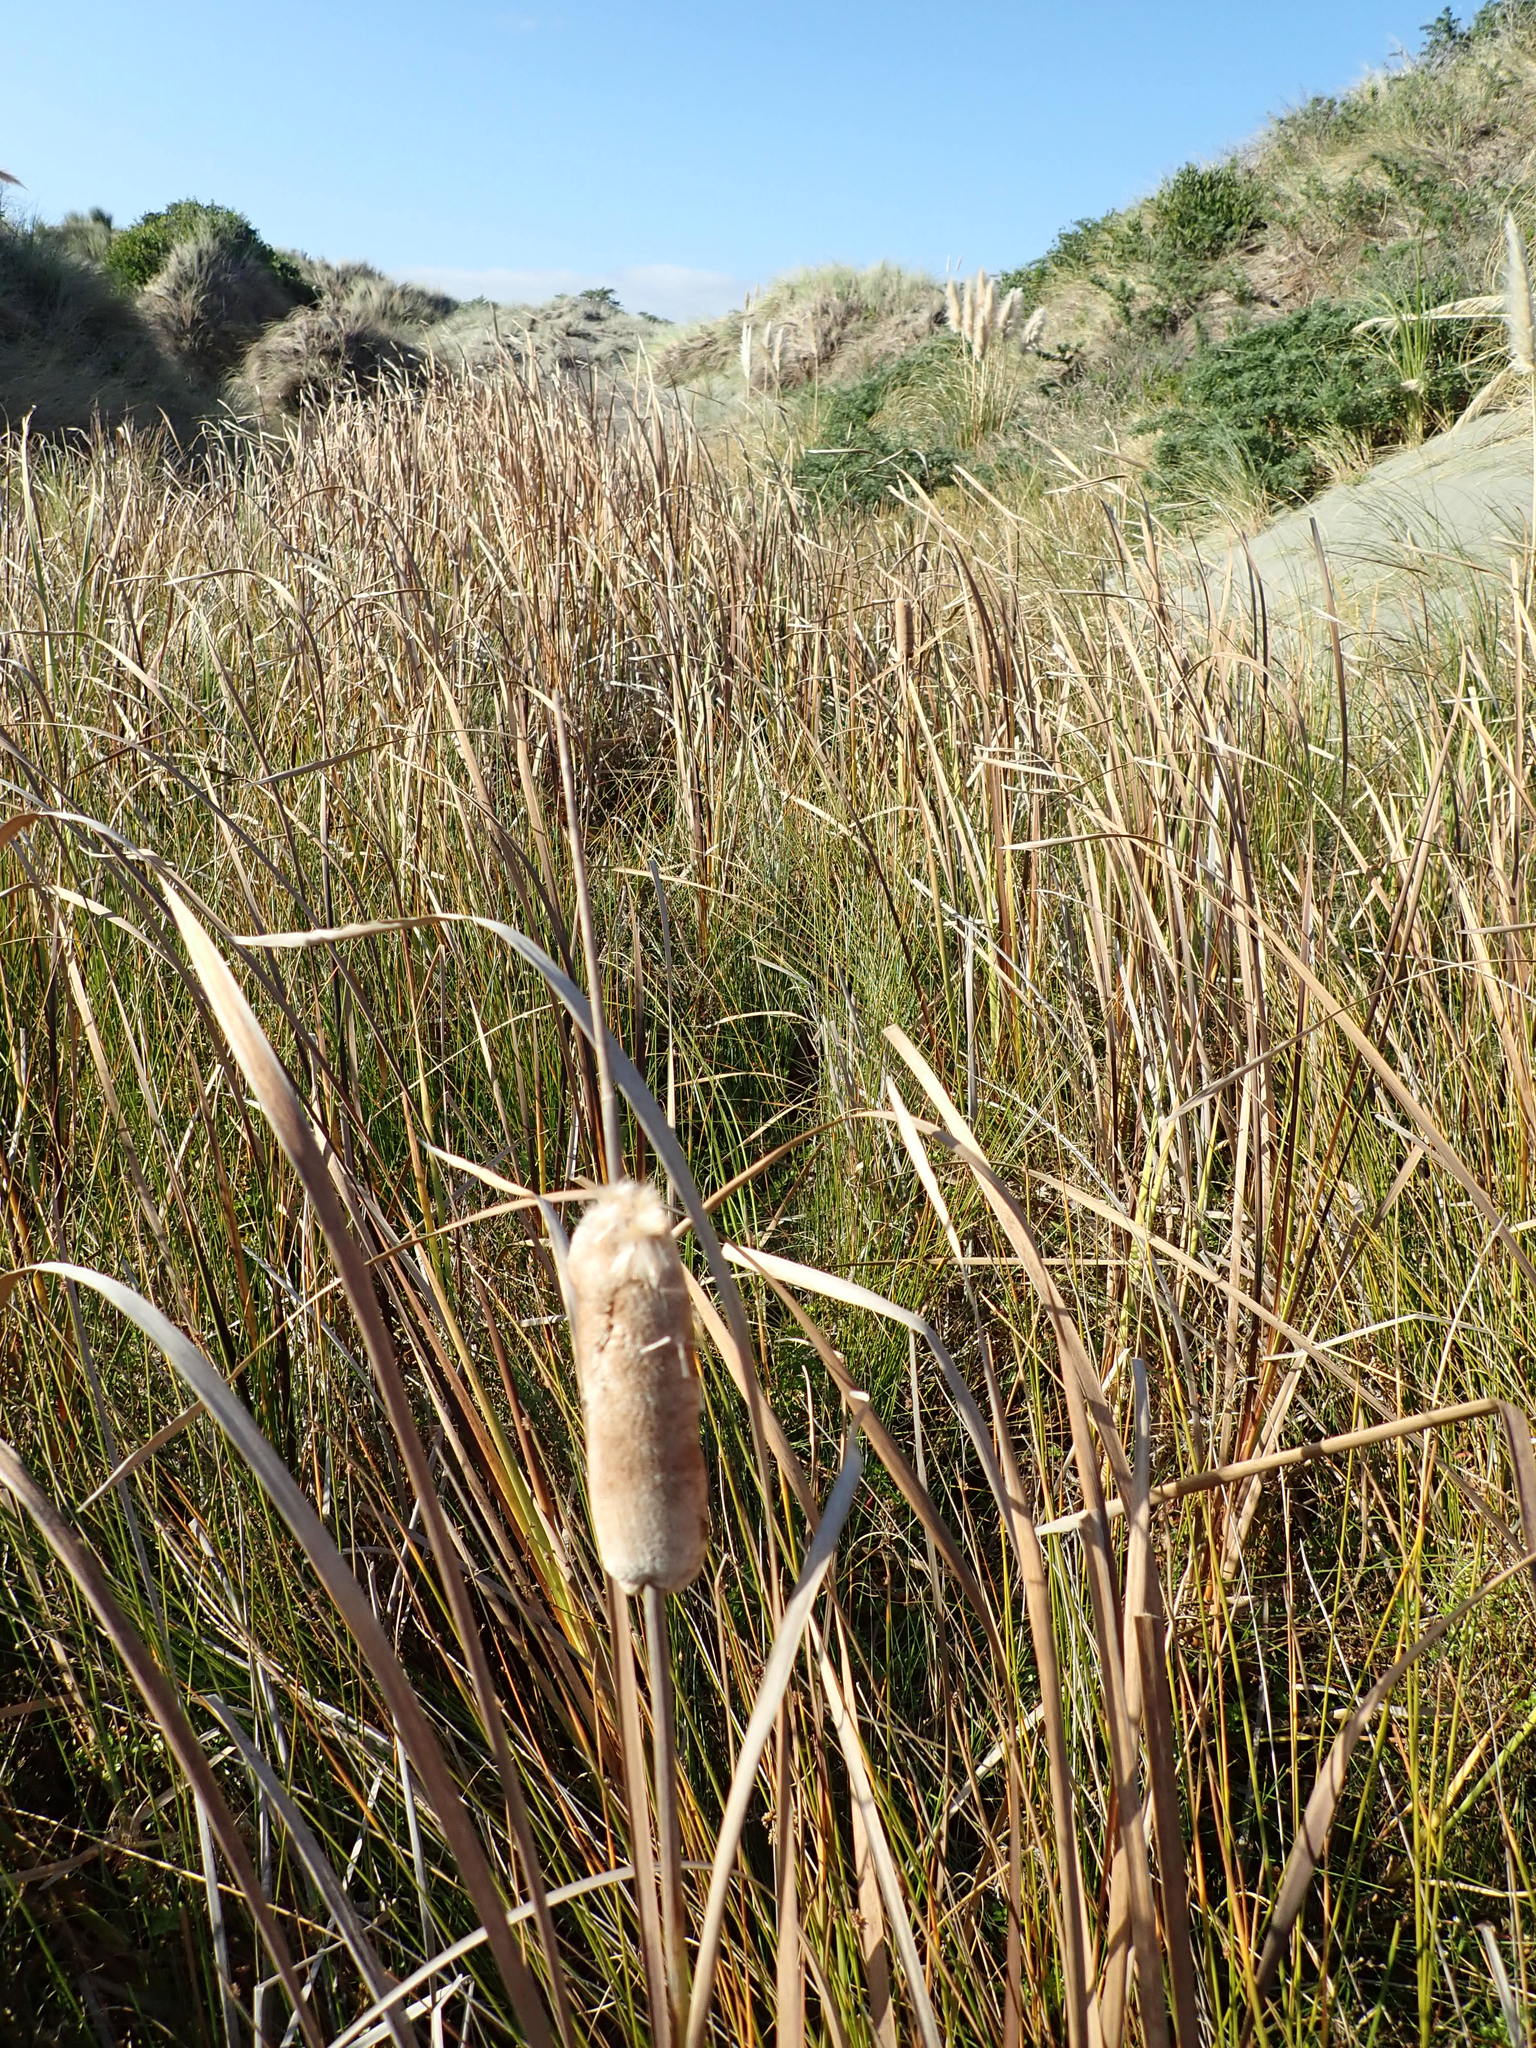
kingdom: Plantae
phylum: Tracheophyta
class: Liliopsida
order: Poales
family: Typhaceae
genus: Typha
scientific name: Typha orientalis
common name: Bullrush
